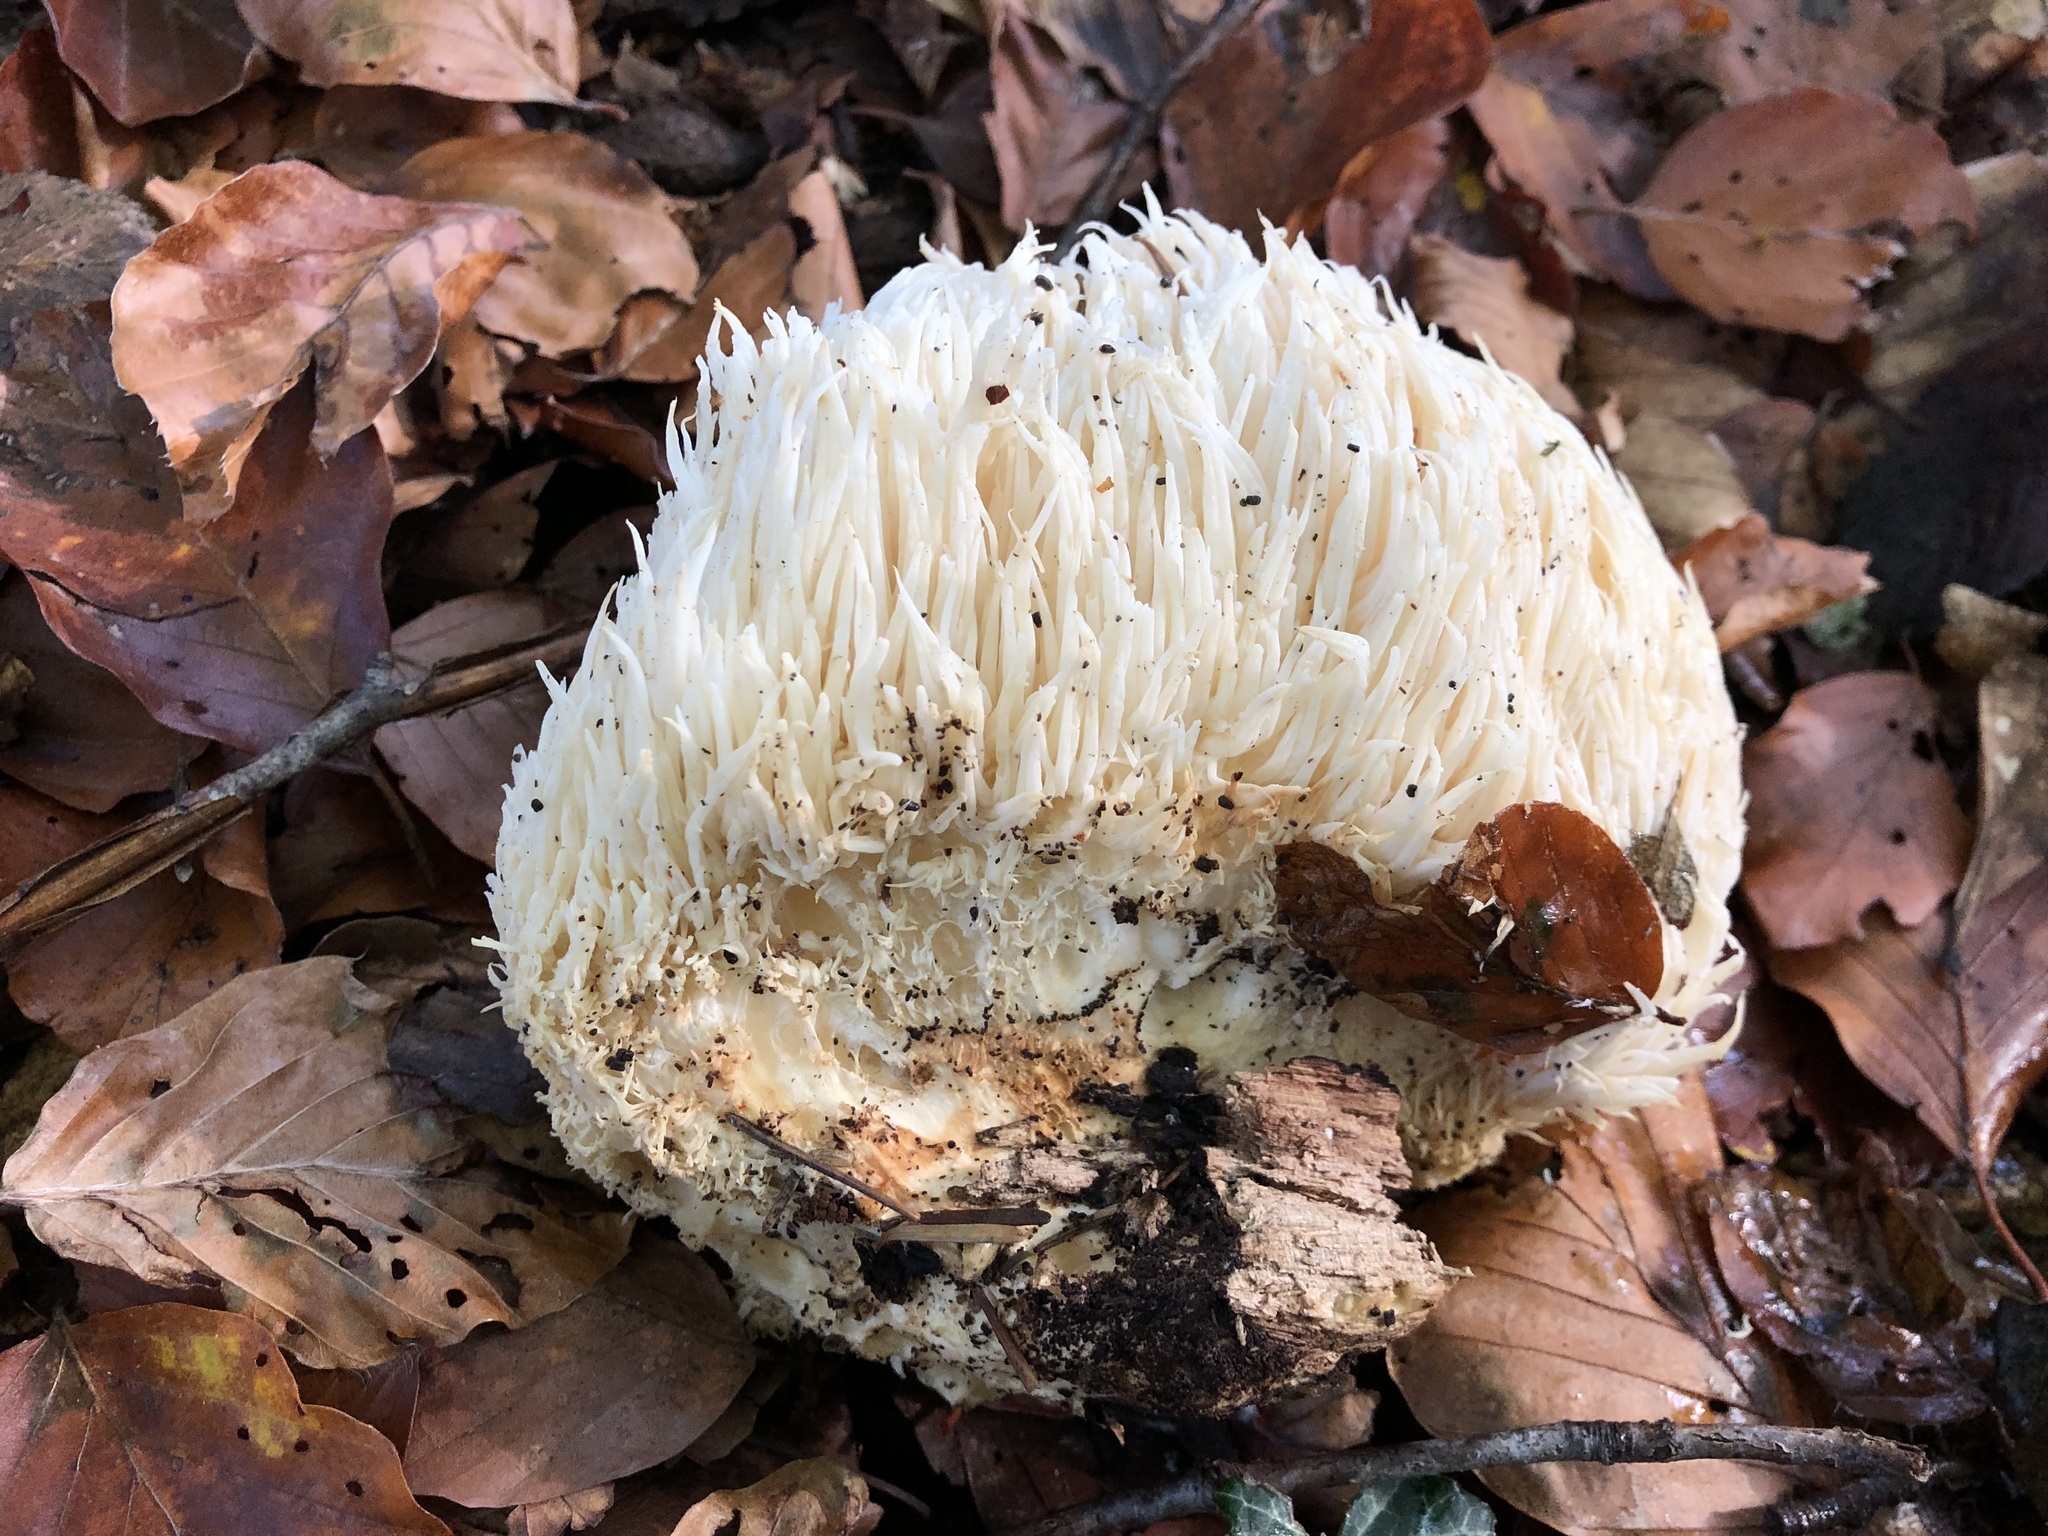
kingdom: Fungi
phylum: Basidiomycota
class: Agaricomycetes
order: Russulales
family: Hericiaceae
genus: Hericium
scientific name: Hericium erinaceus
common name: Bearded tooth
